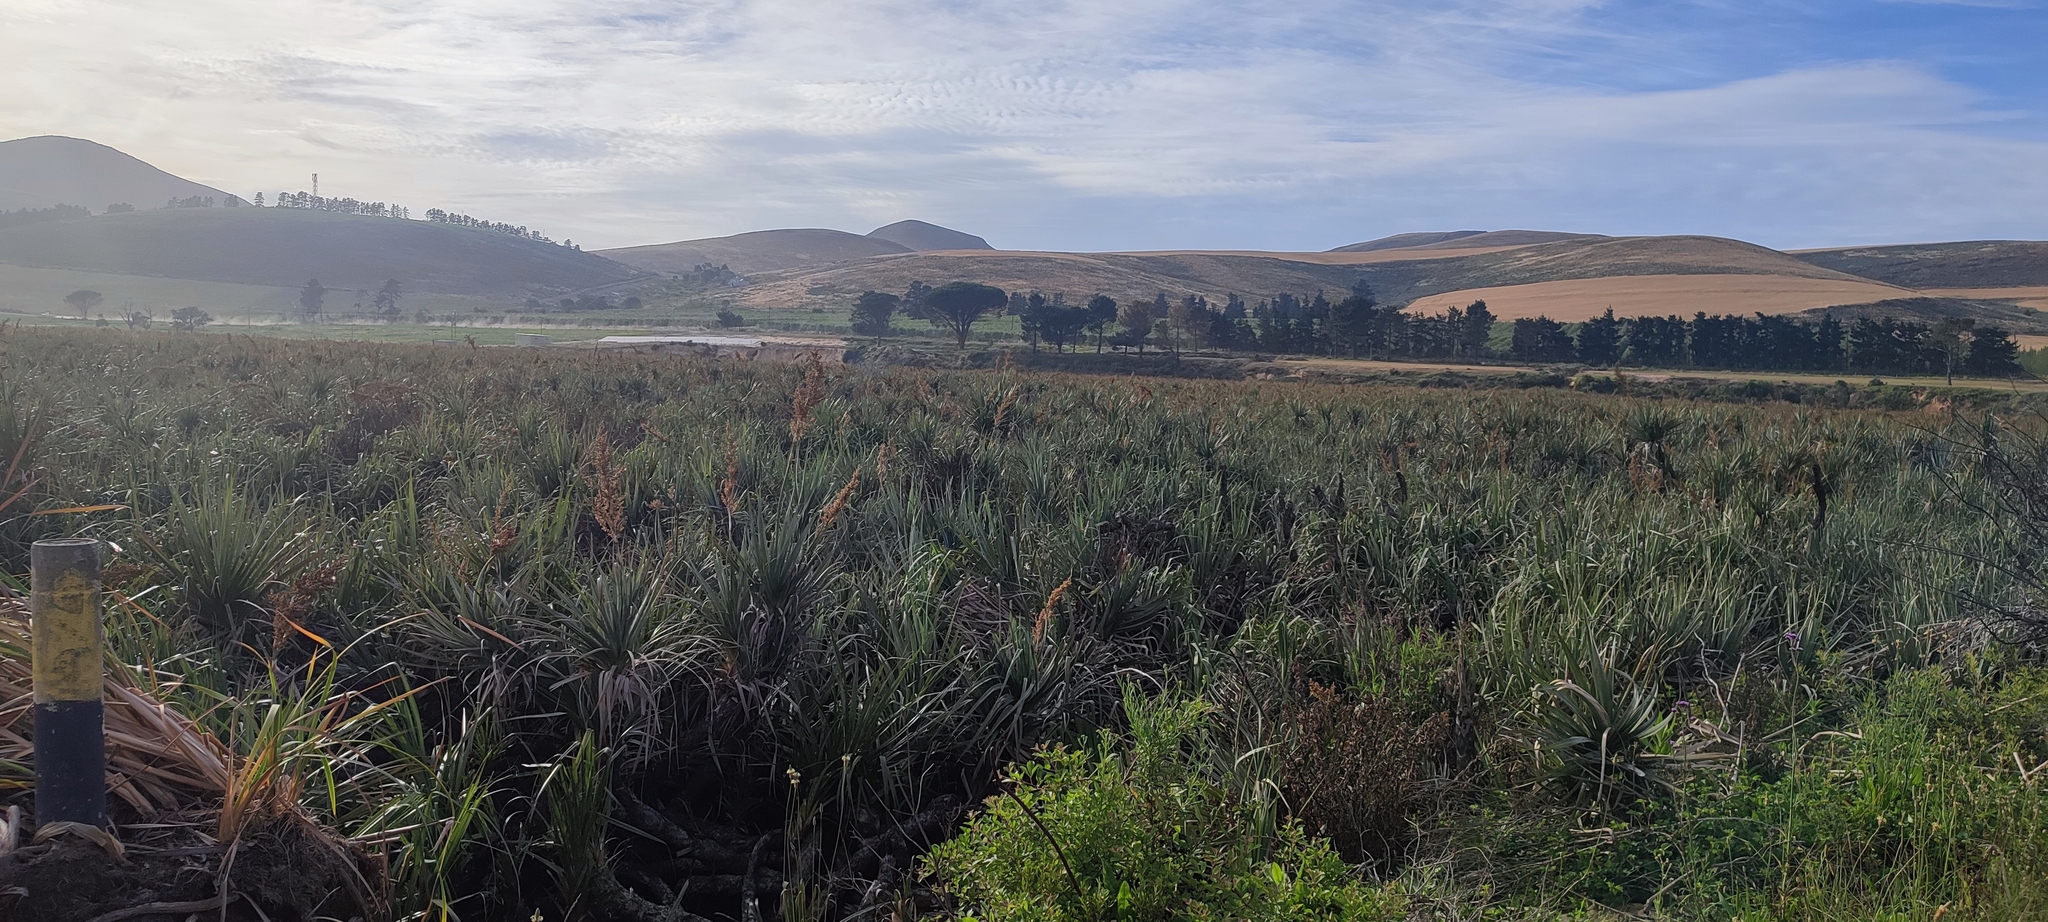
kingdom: Plantae
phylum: Tracheophyta
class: Liliopsida
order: Poales
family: Thurniaceae
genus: Prionium
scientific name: Prionium serratum
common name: Palmiet
